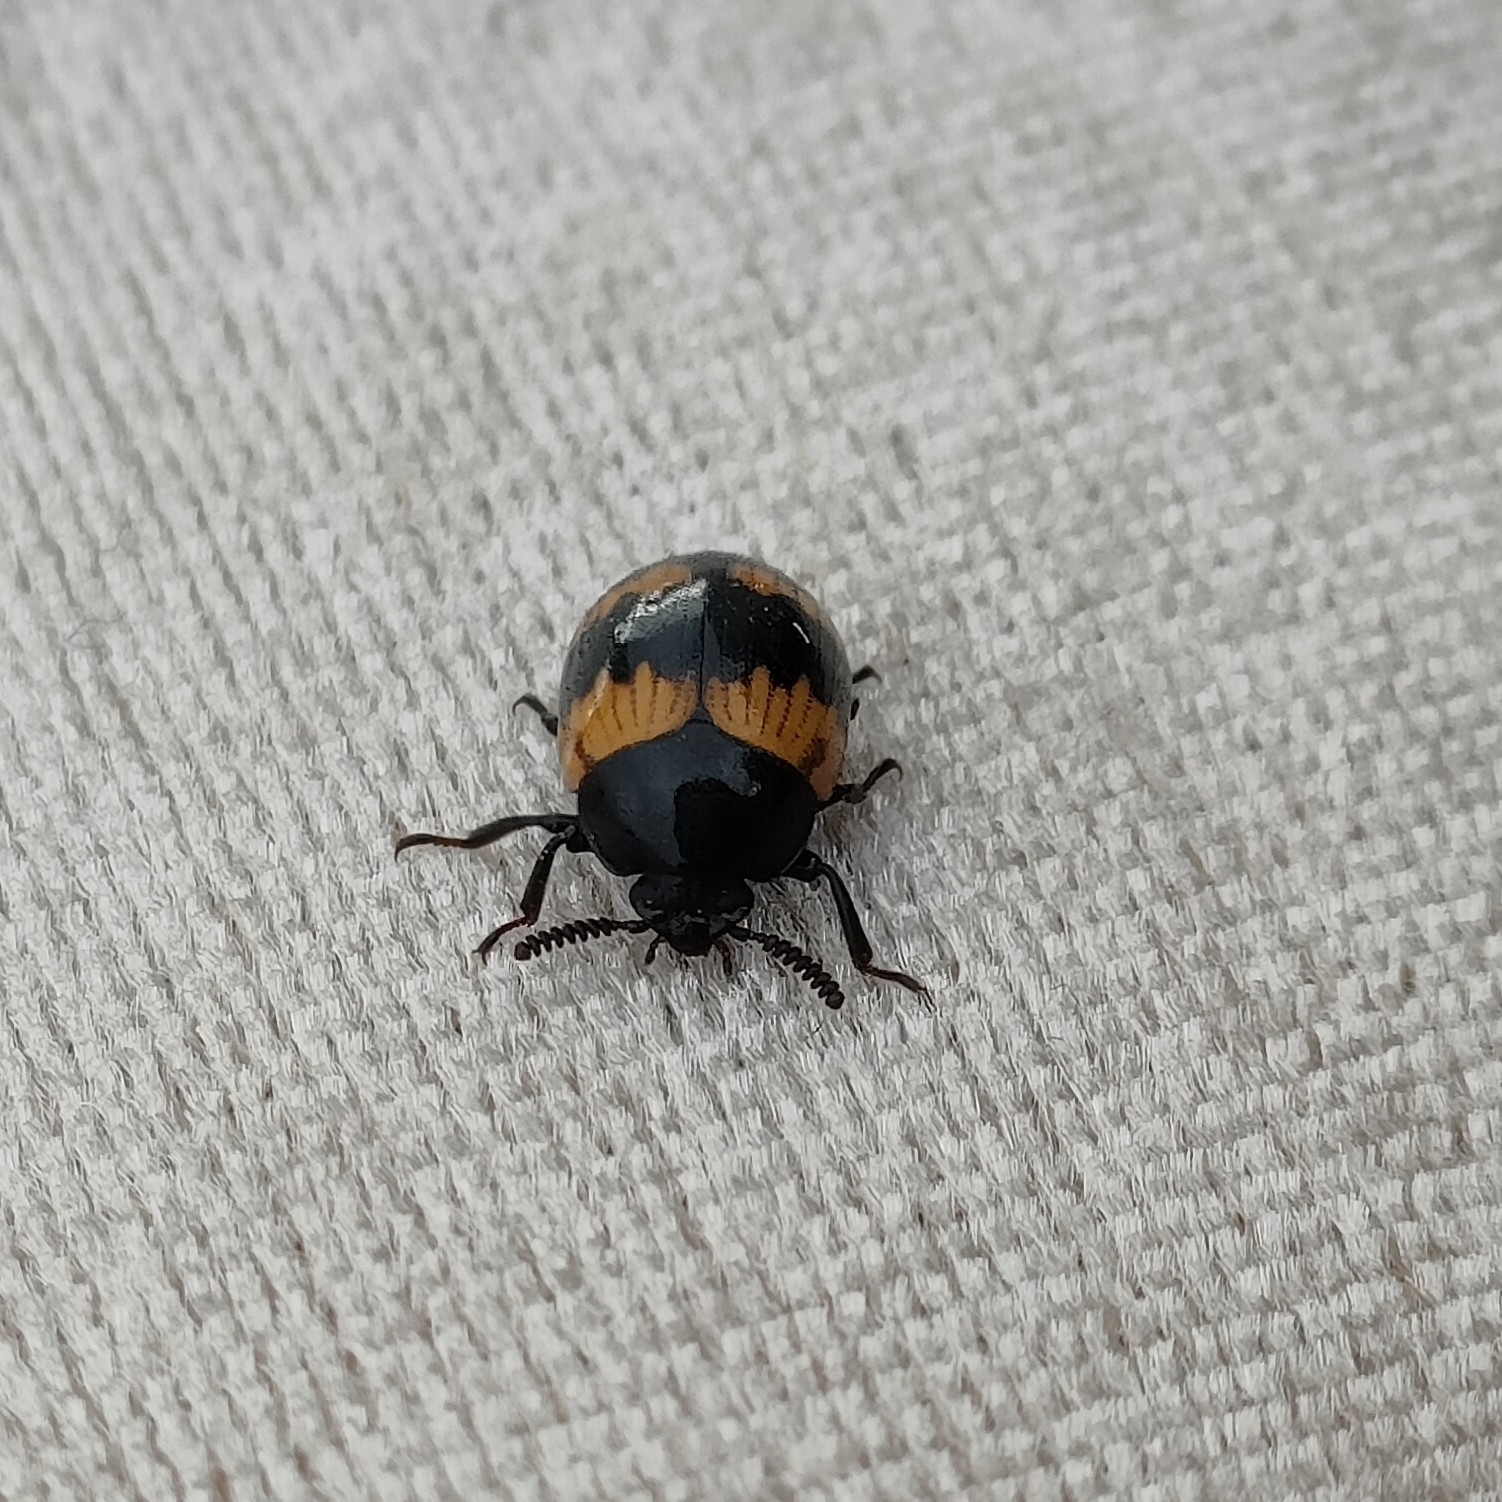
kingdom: Animalia
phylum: Arthropoda
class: Insecta
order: Coleoptera
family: Tenebrionidae
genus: Diaperis
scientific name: Diaperis boleti
